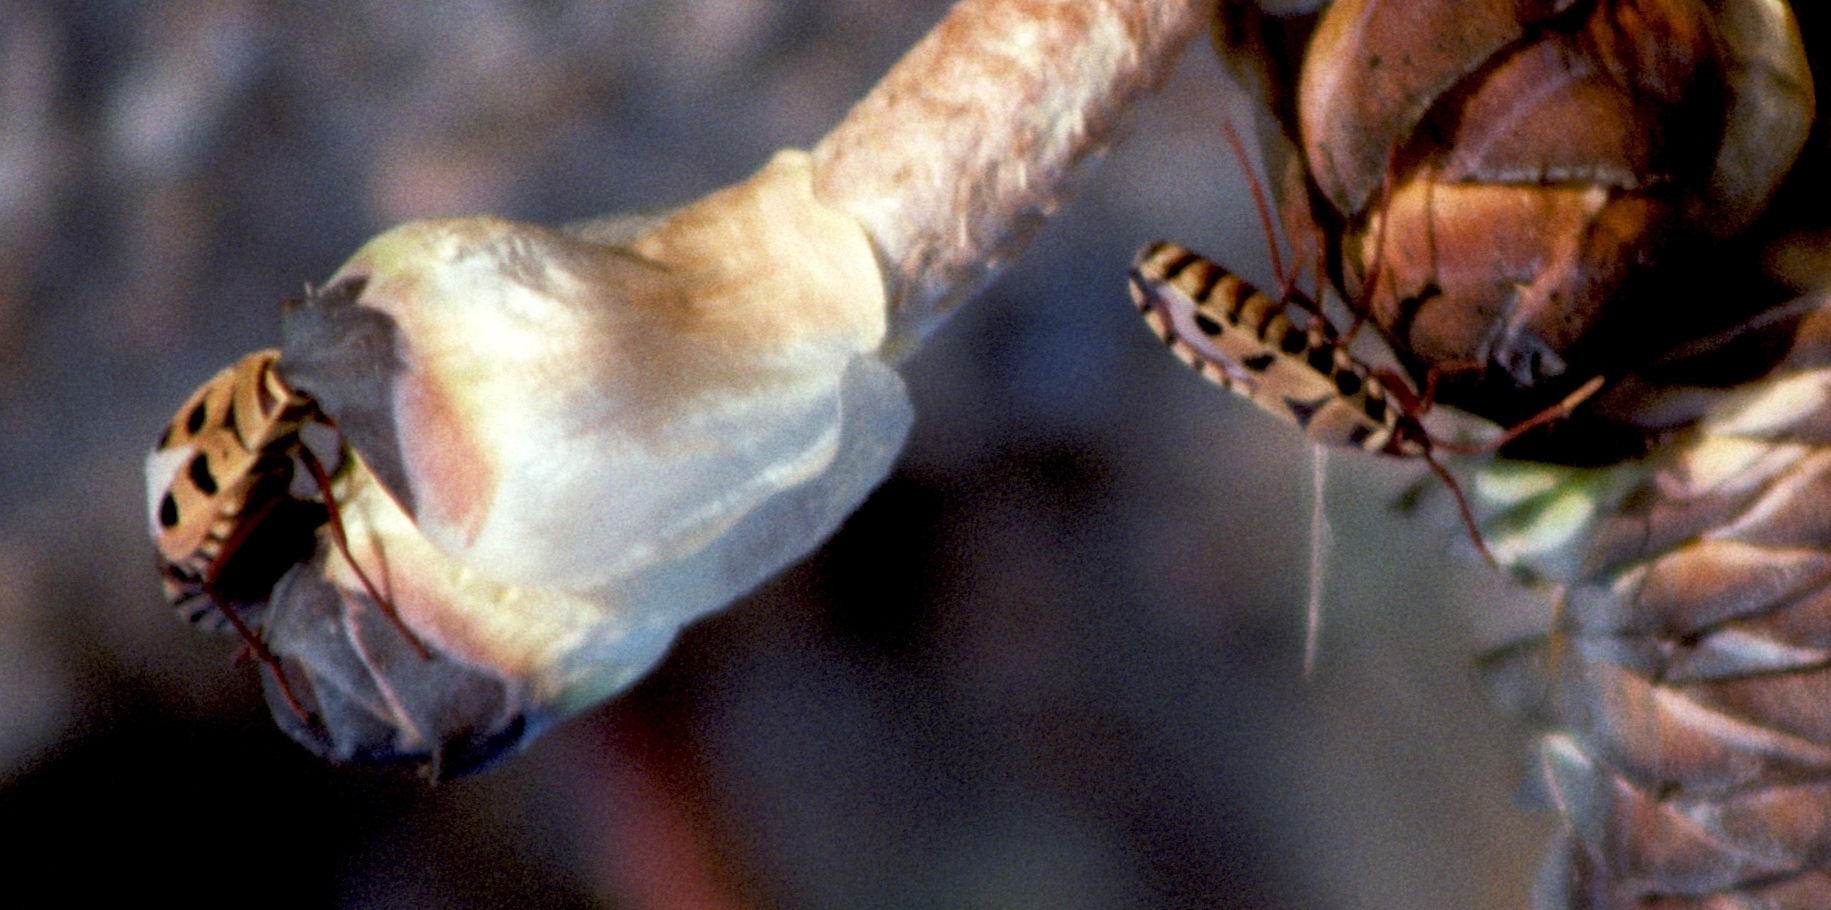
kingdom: Animalia
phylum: Arthropoda
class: Insecta
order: Hemiptera
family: Pyrrhocoridae
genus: Probergrothius
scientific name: Probergrothius angolensis
